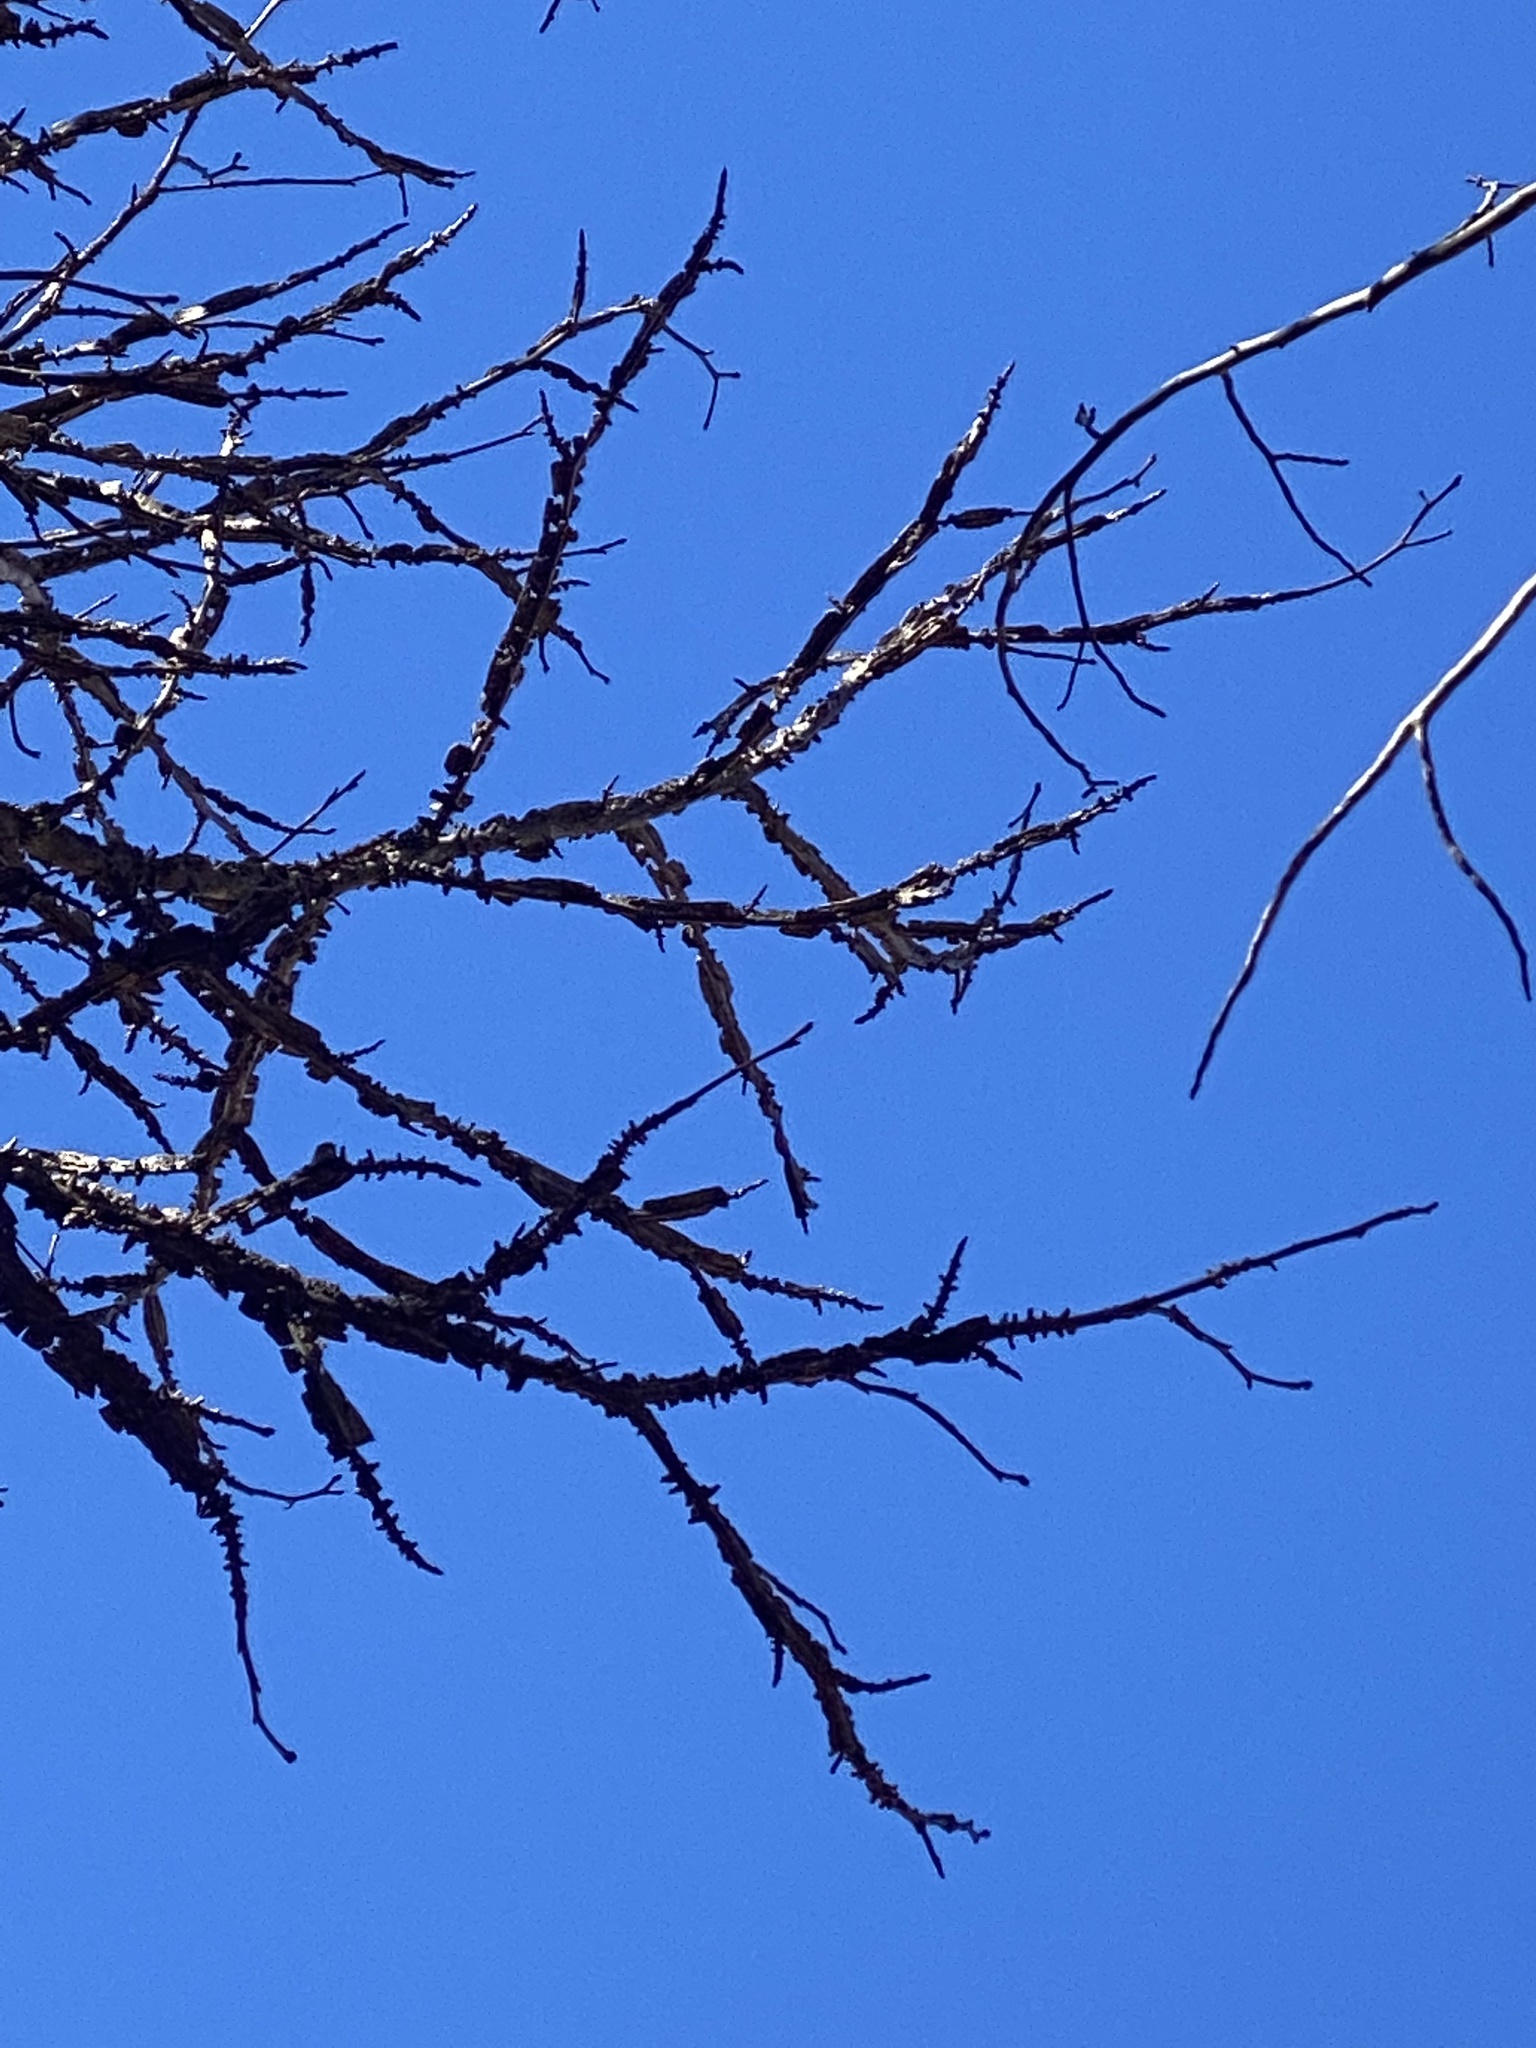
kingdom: Plantae
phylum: Tracheophyta
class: Magnoliopsida
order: Saxifragales
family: Altingiaceae
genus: Liquidambar
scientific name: Liquidambar styraciflua
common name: Sweet gum
